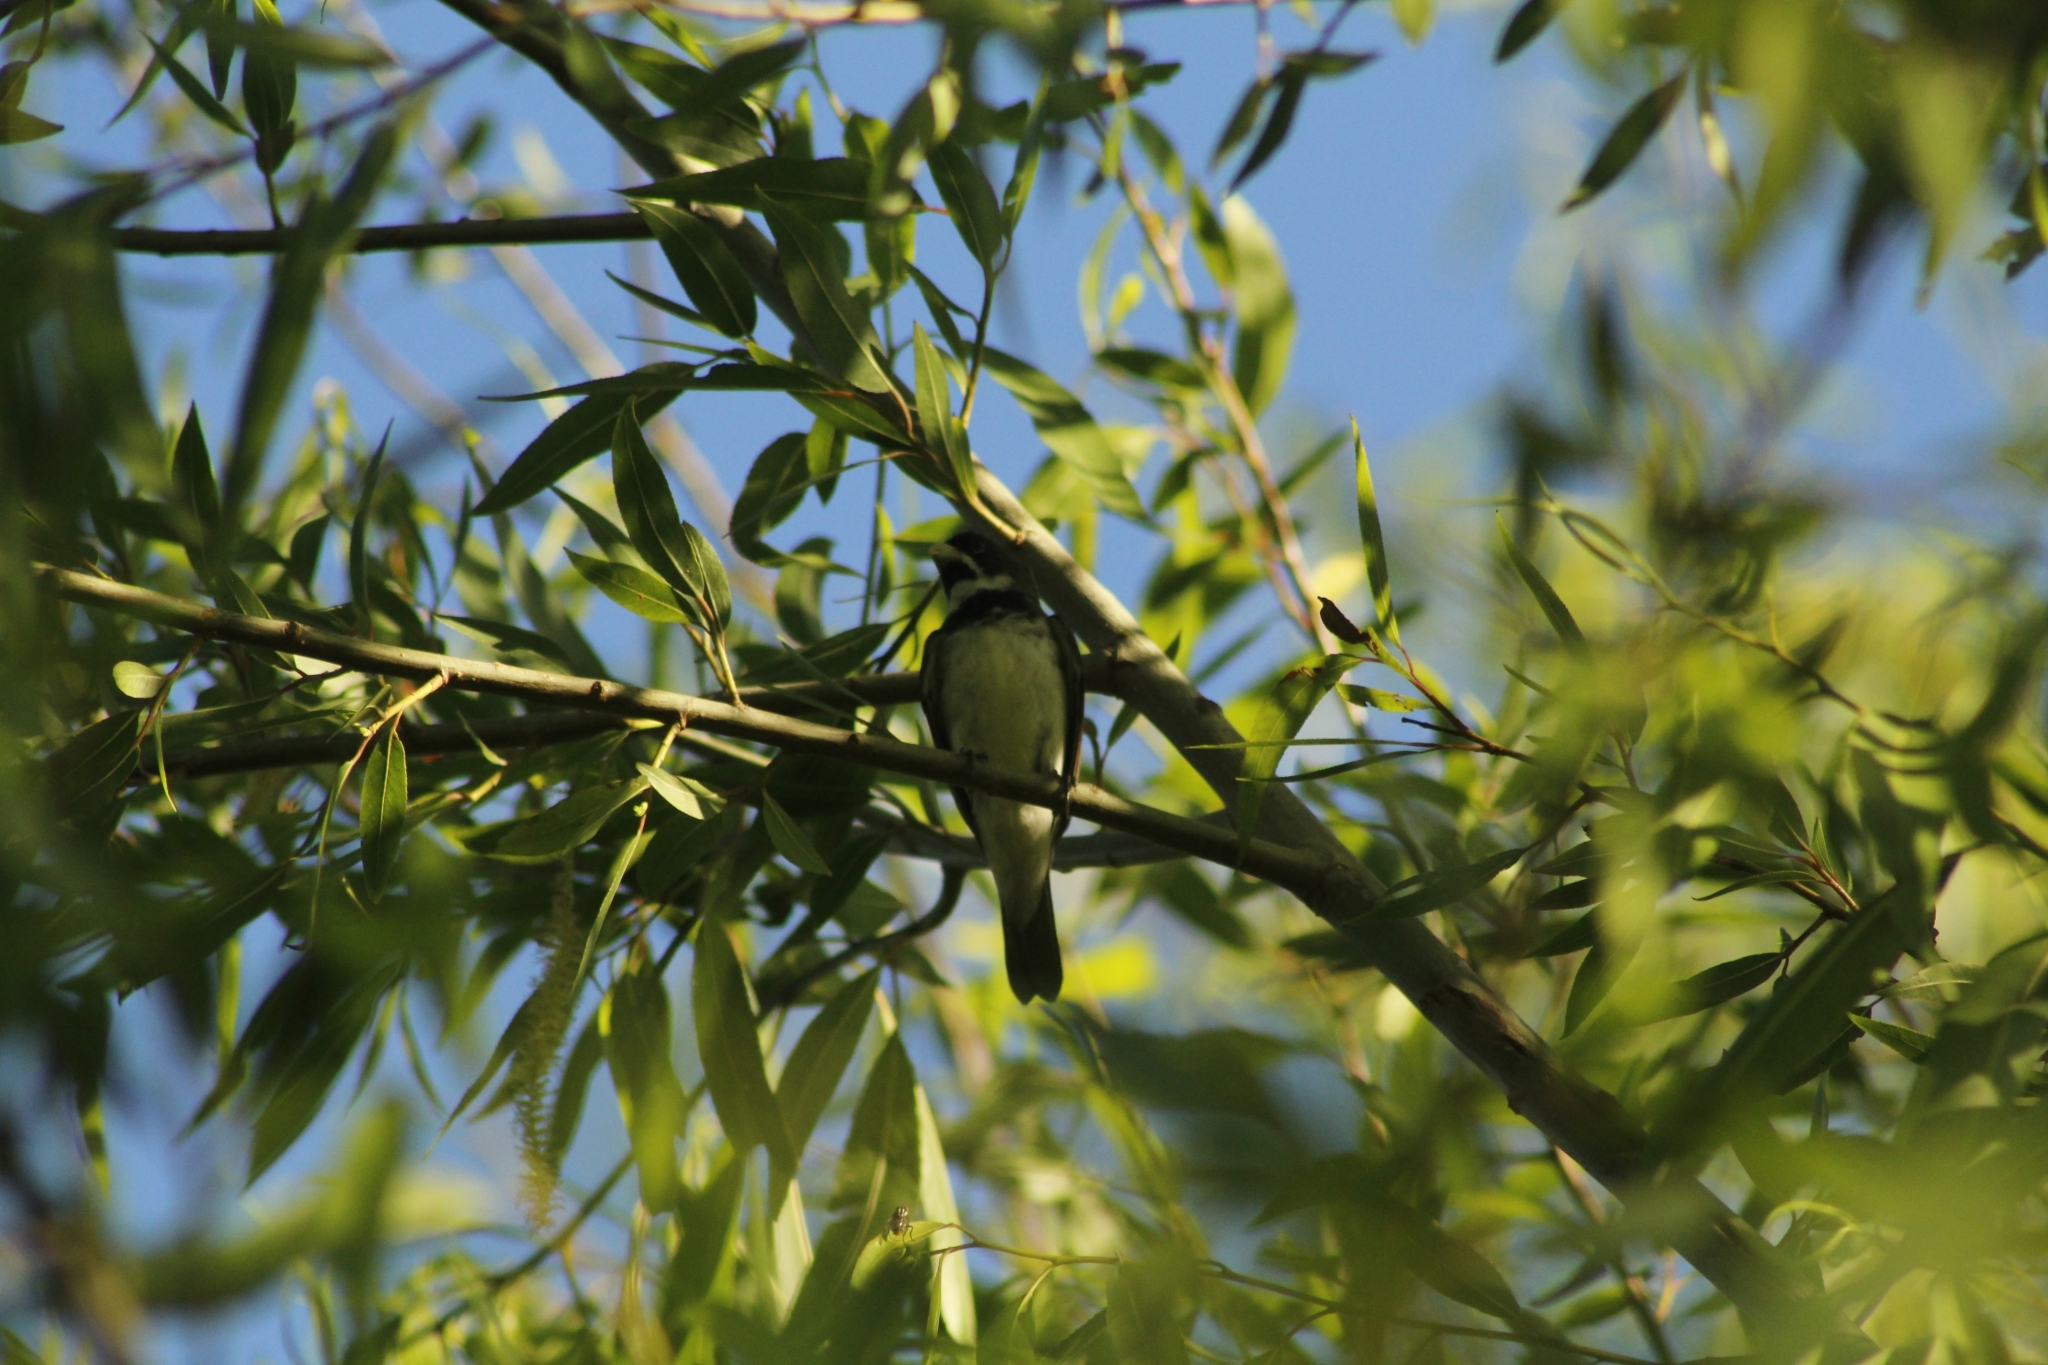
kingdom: Animalia
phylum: Chordata
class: Aves
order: Passeriformes
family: Thraupidae
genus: Sporophila
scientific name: Sporophila caerulescens
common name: Double-collared seedeater
